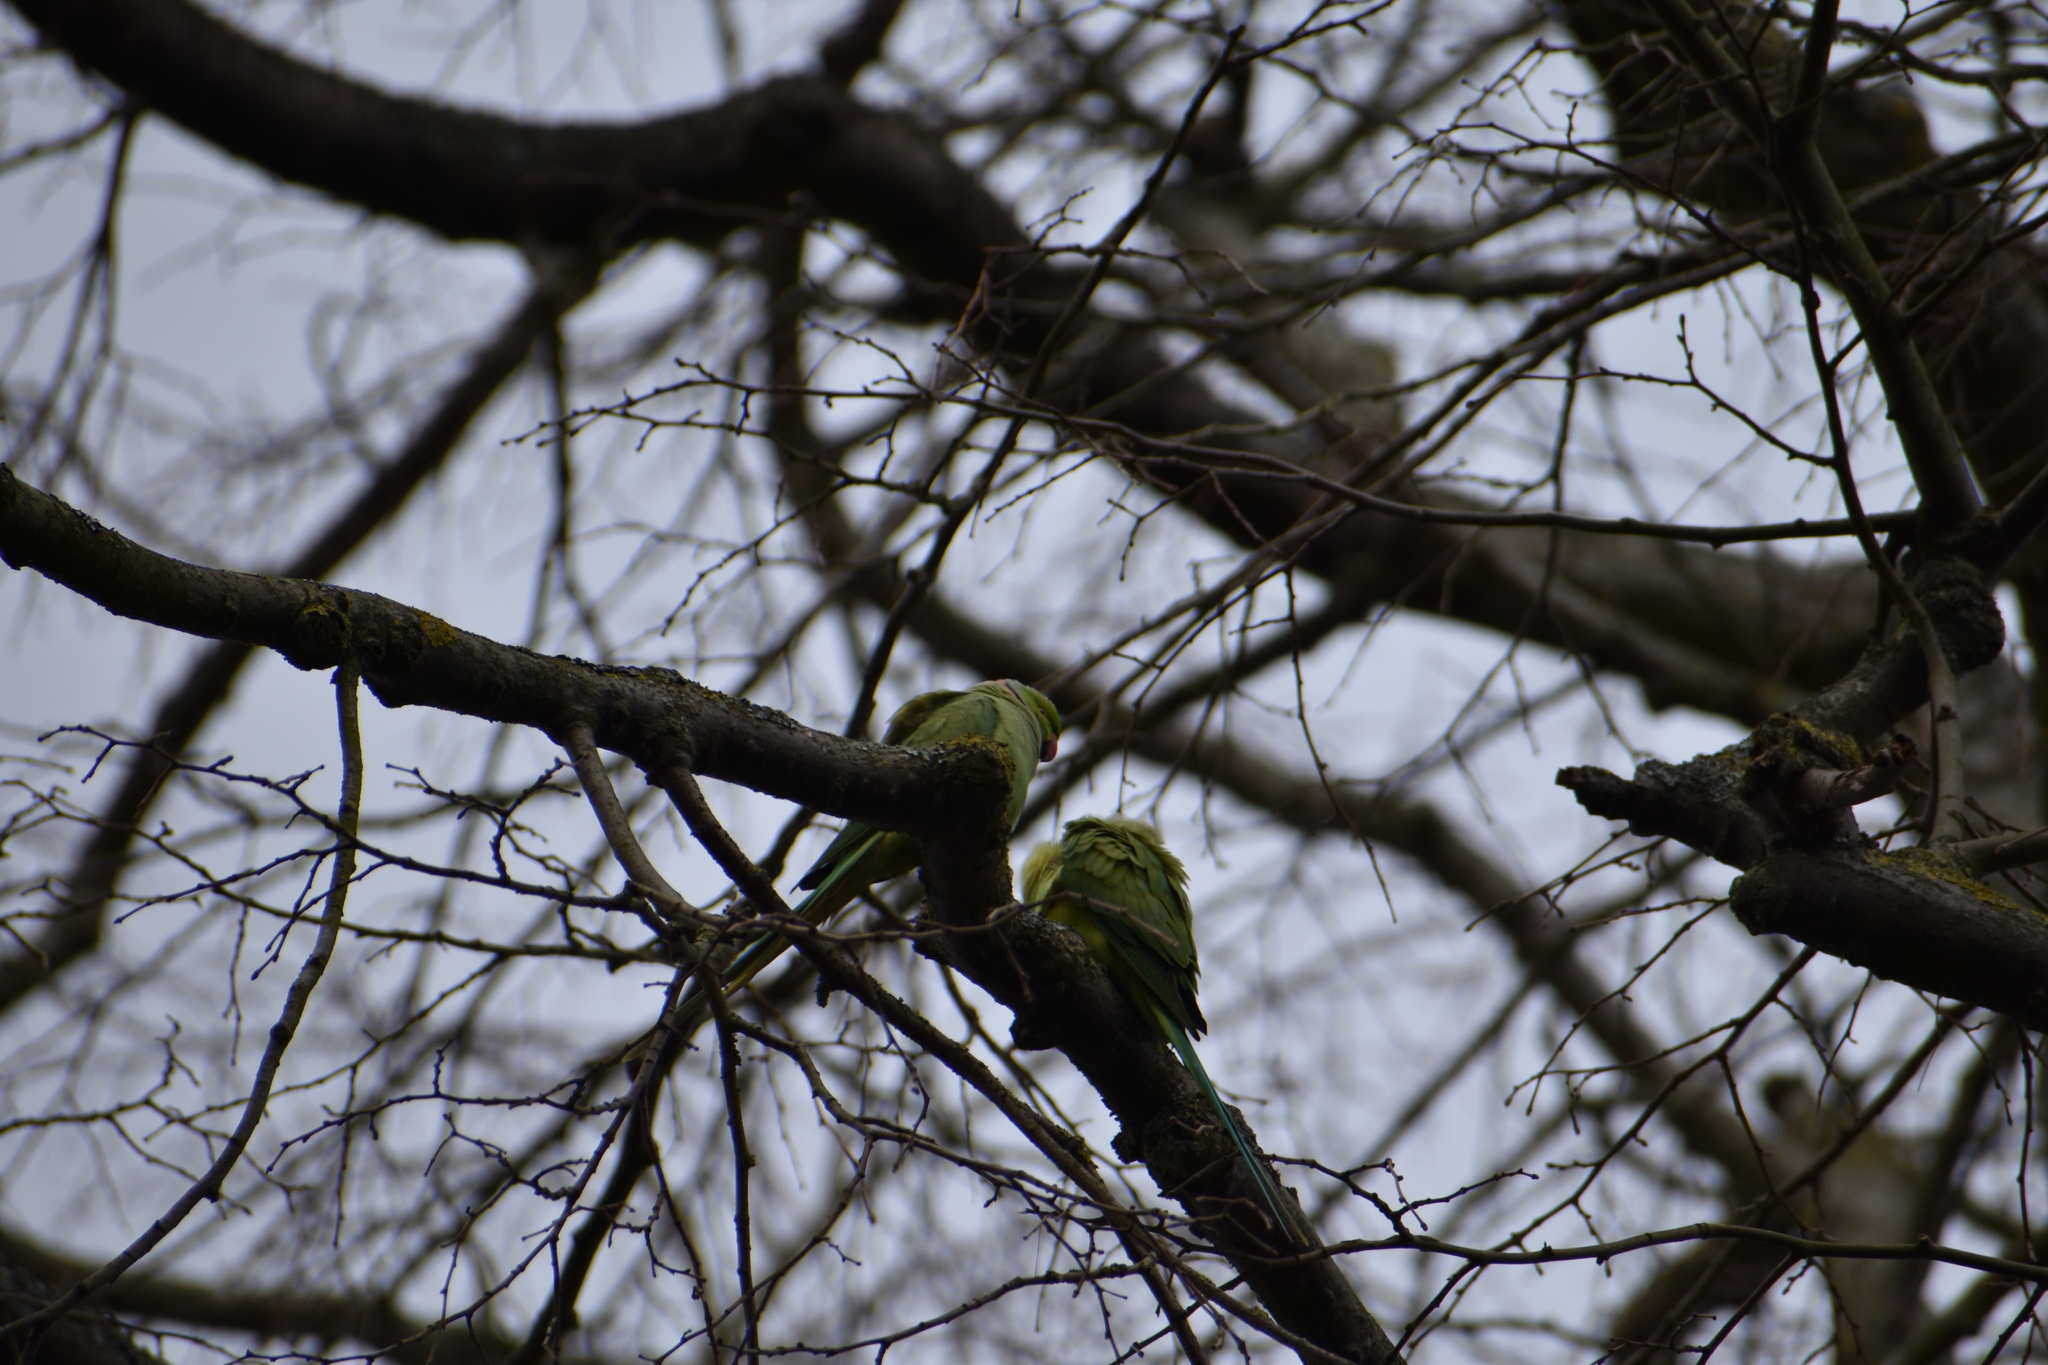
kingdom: Animalia
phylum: Chordata
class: Aves
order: Psittaciformes
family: Psittacidae
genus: Psittacula
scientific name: Psittacula krameri
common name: Rose-ringed parakeet
